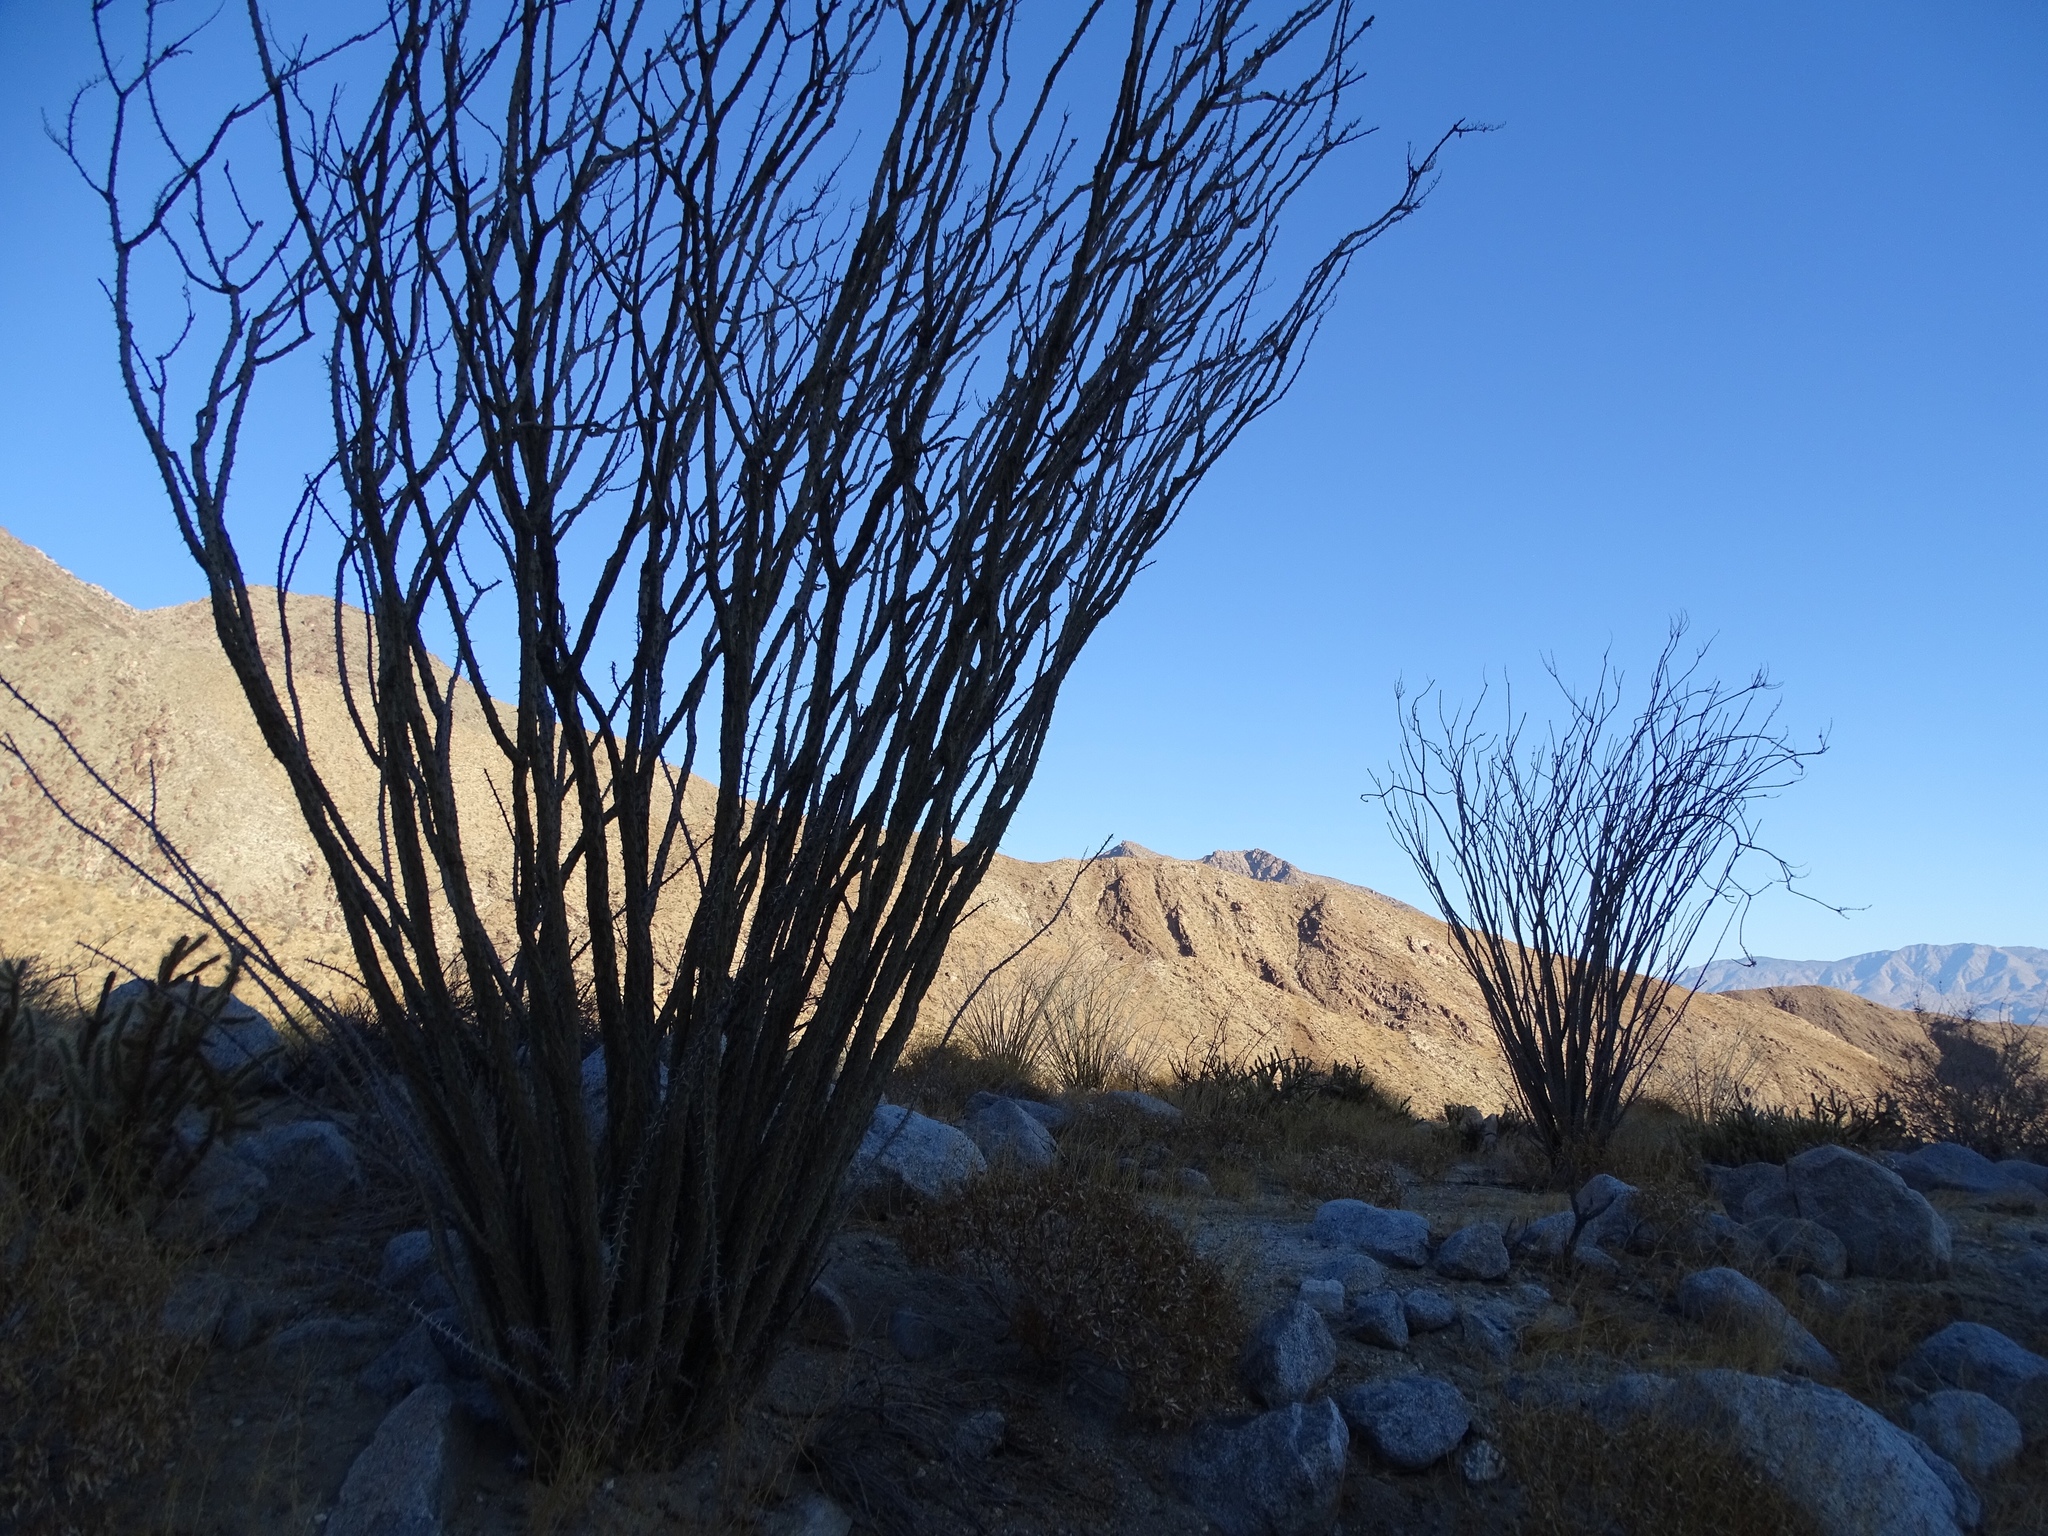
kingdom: Plantae
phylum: Tracheophyta
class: Magnoliopsida
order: Ericales
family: Fouquieriaceae
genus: Fouquieria
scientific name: Fouquieria splendens
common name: Vine-cactus
